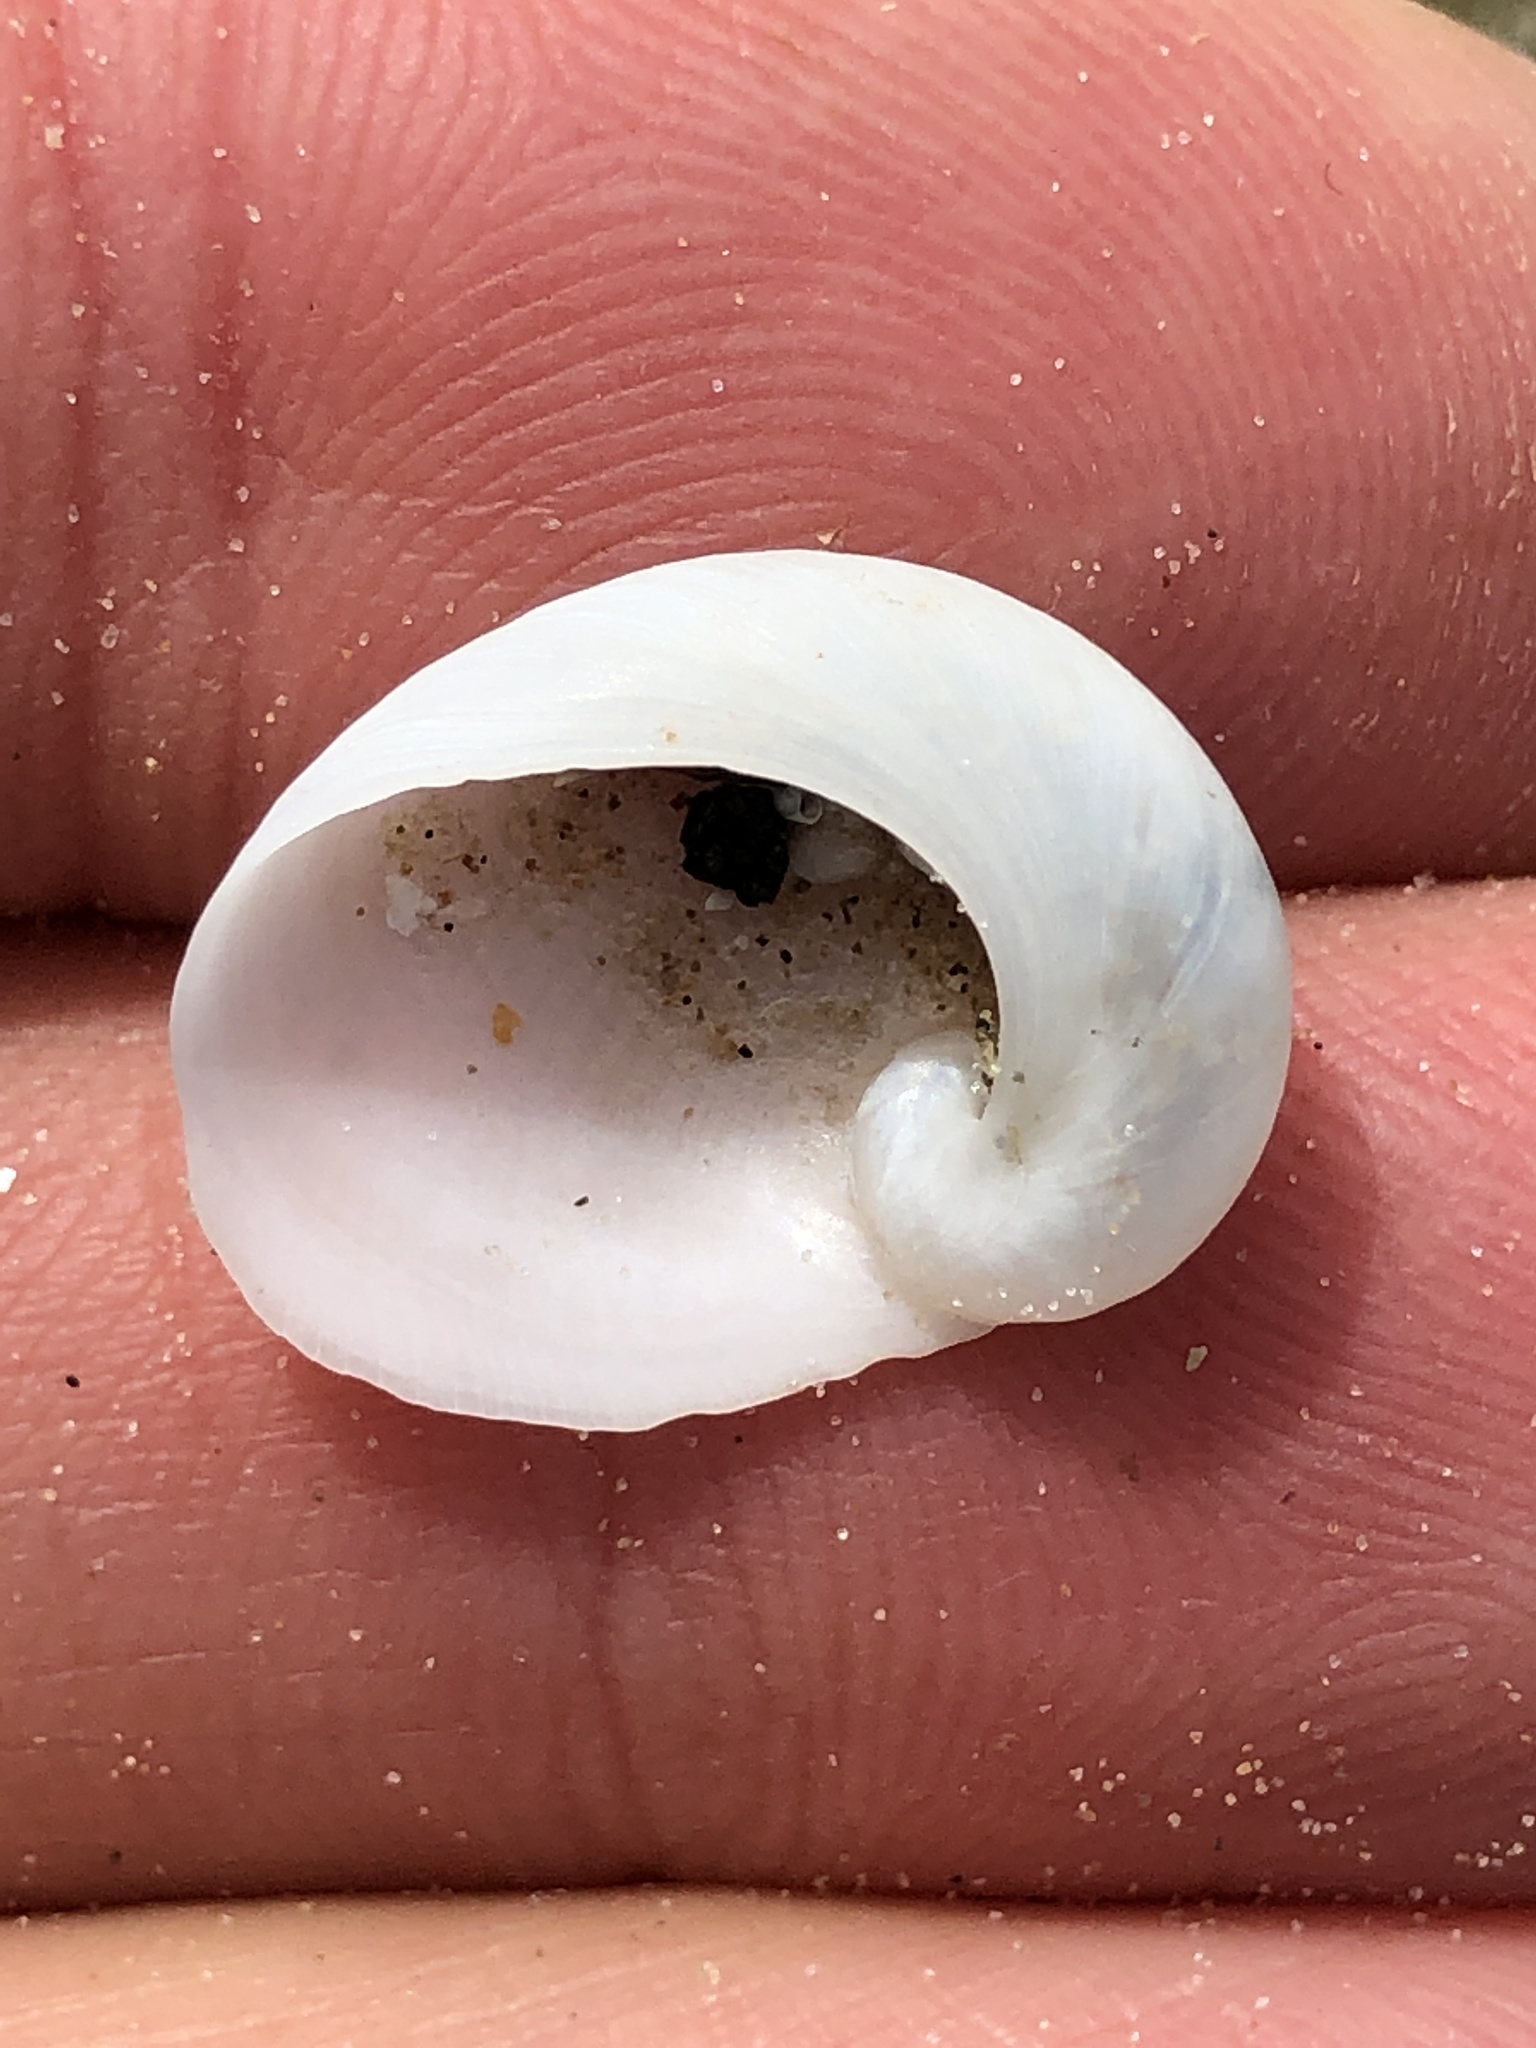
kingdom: Animalia
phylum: Mollusca
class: Gastropoda
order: Littorinimorpha
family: Naticidae
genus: Sinum
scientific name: Sinum perspectivum
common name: White baby ear
